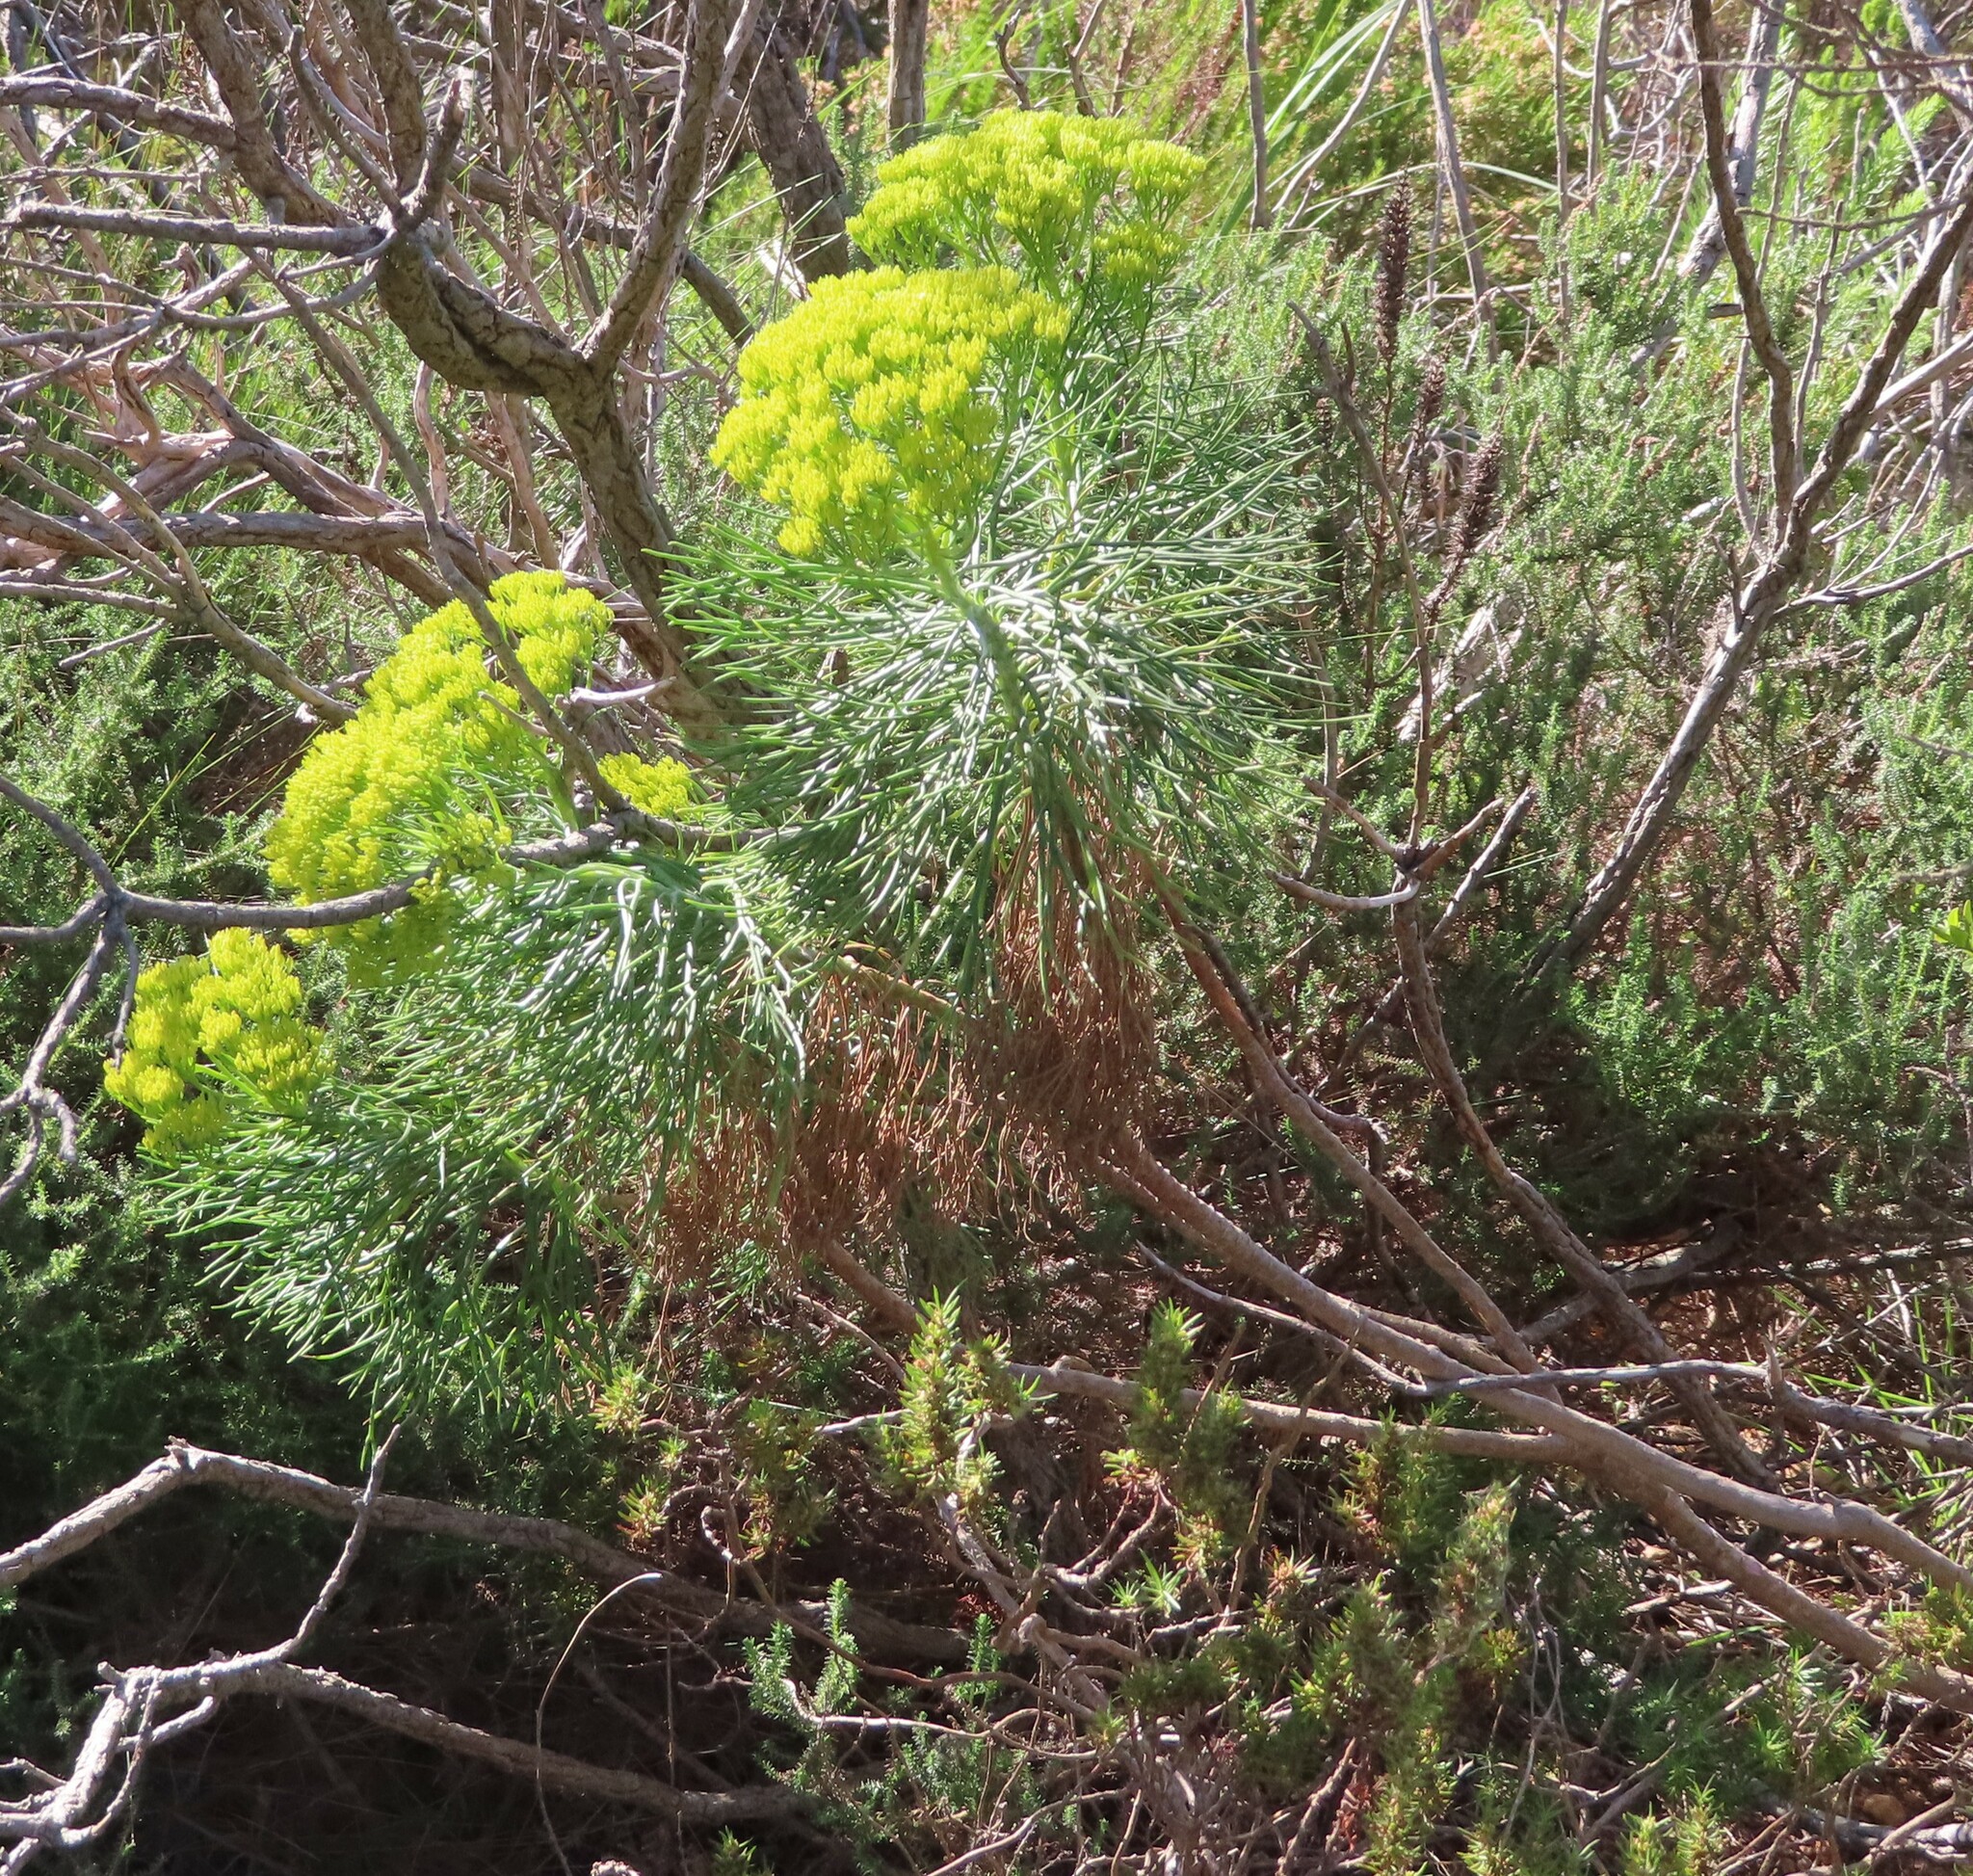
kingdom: Plantae
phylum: Tracheophyta
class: Magnoliopsida
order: Asterales
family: Asteraceae
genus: Hymenolepis
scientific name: Hymenolepis crithmifolia
